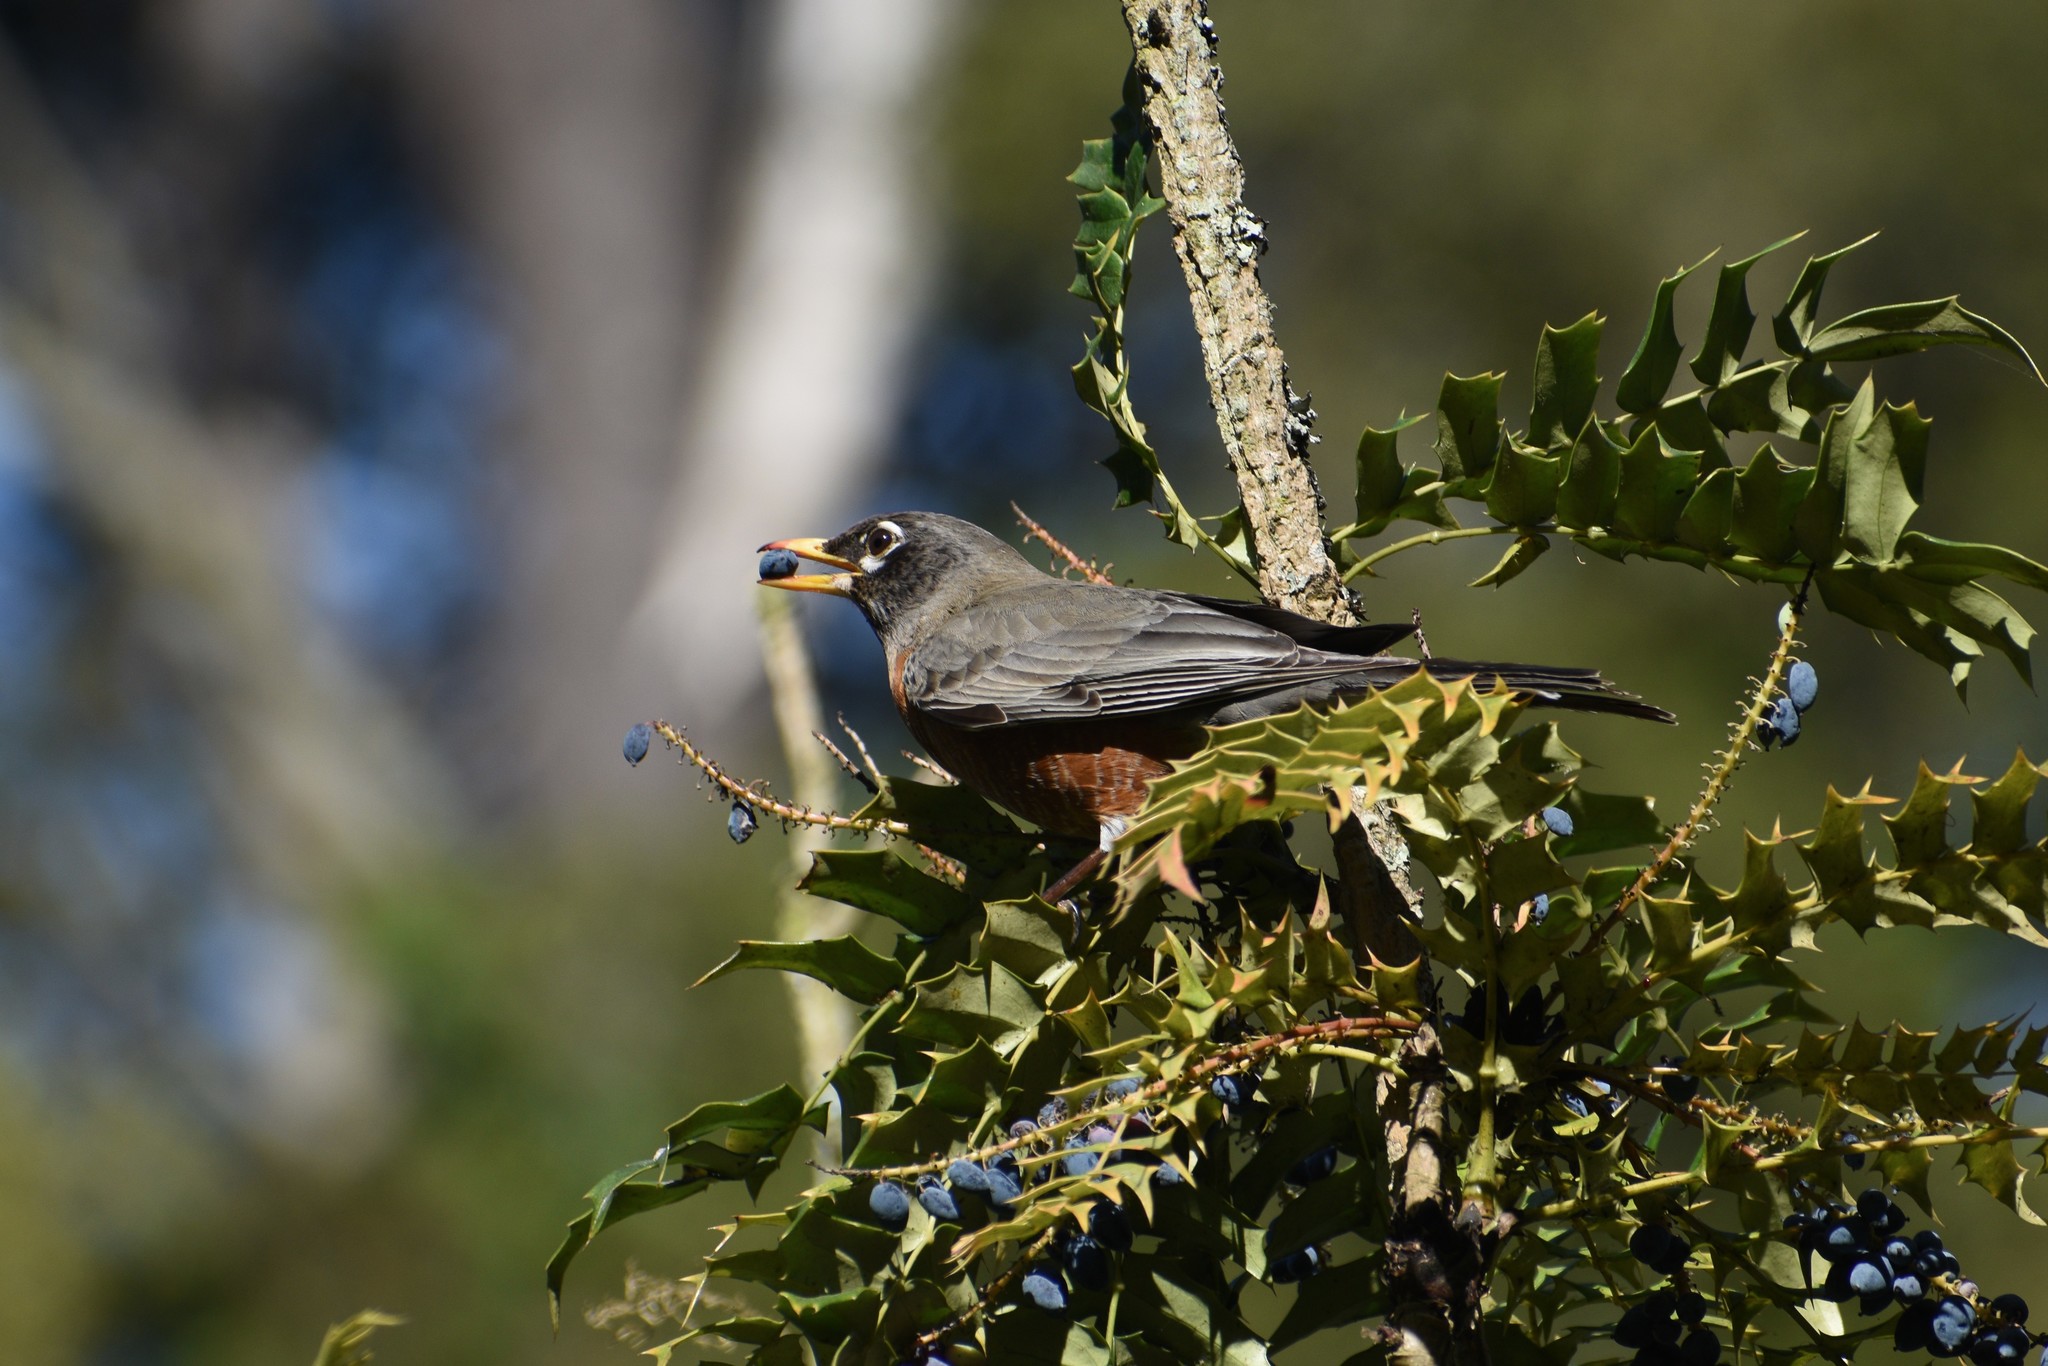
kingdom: Animalia
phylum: Chordata
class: Aves
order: Passeriformes
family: Turdidae
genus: Turdus
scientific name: Turdus migratorius
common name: American robin
